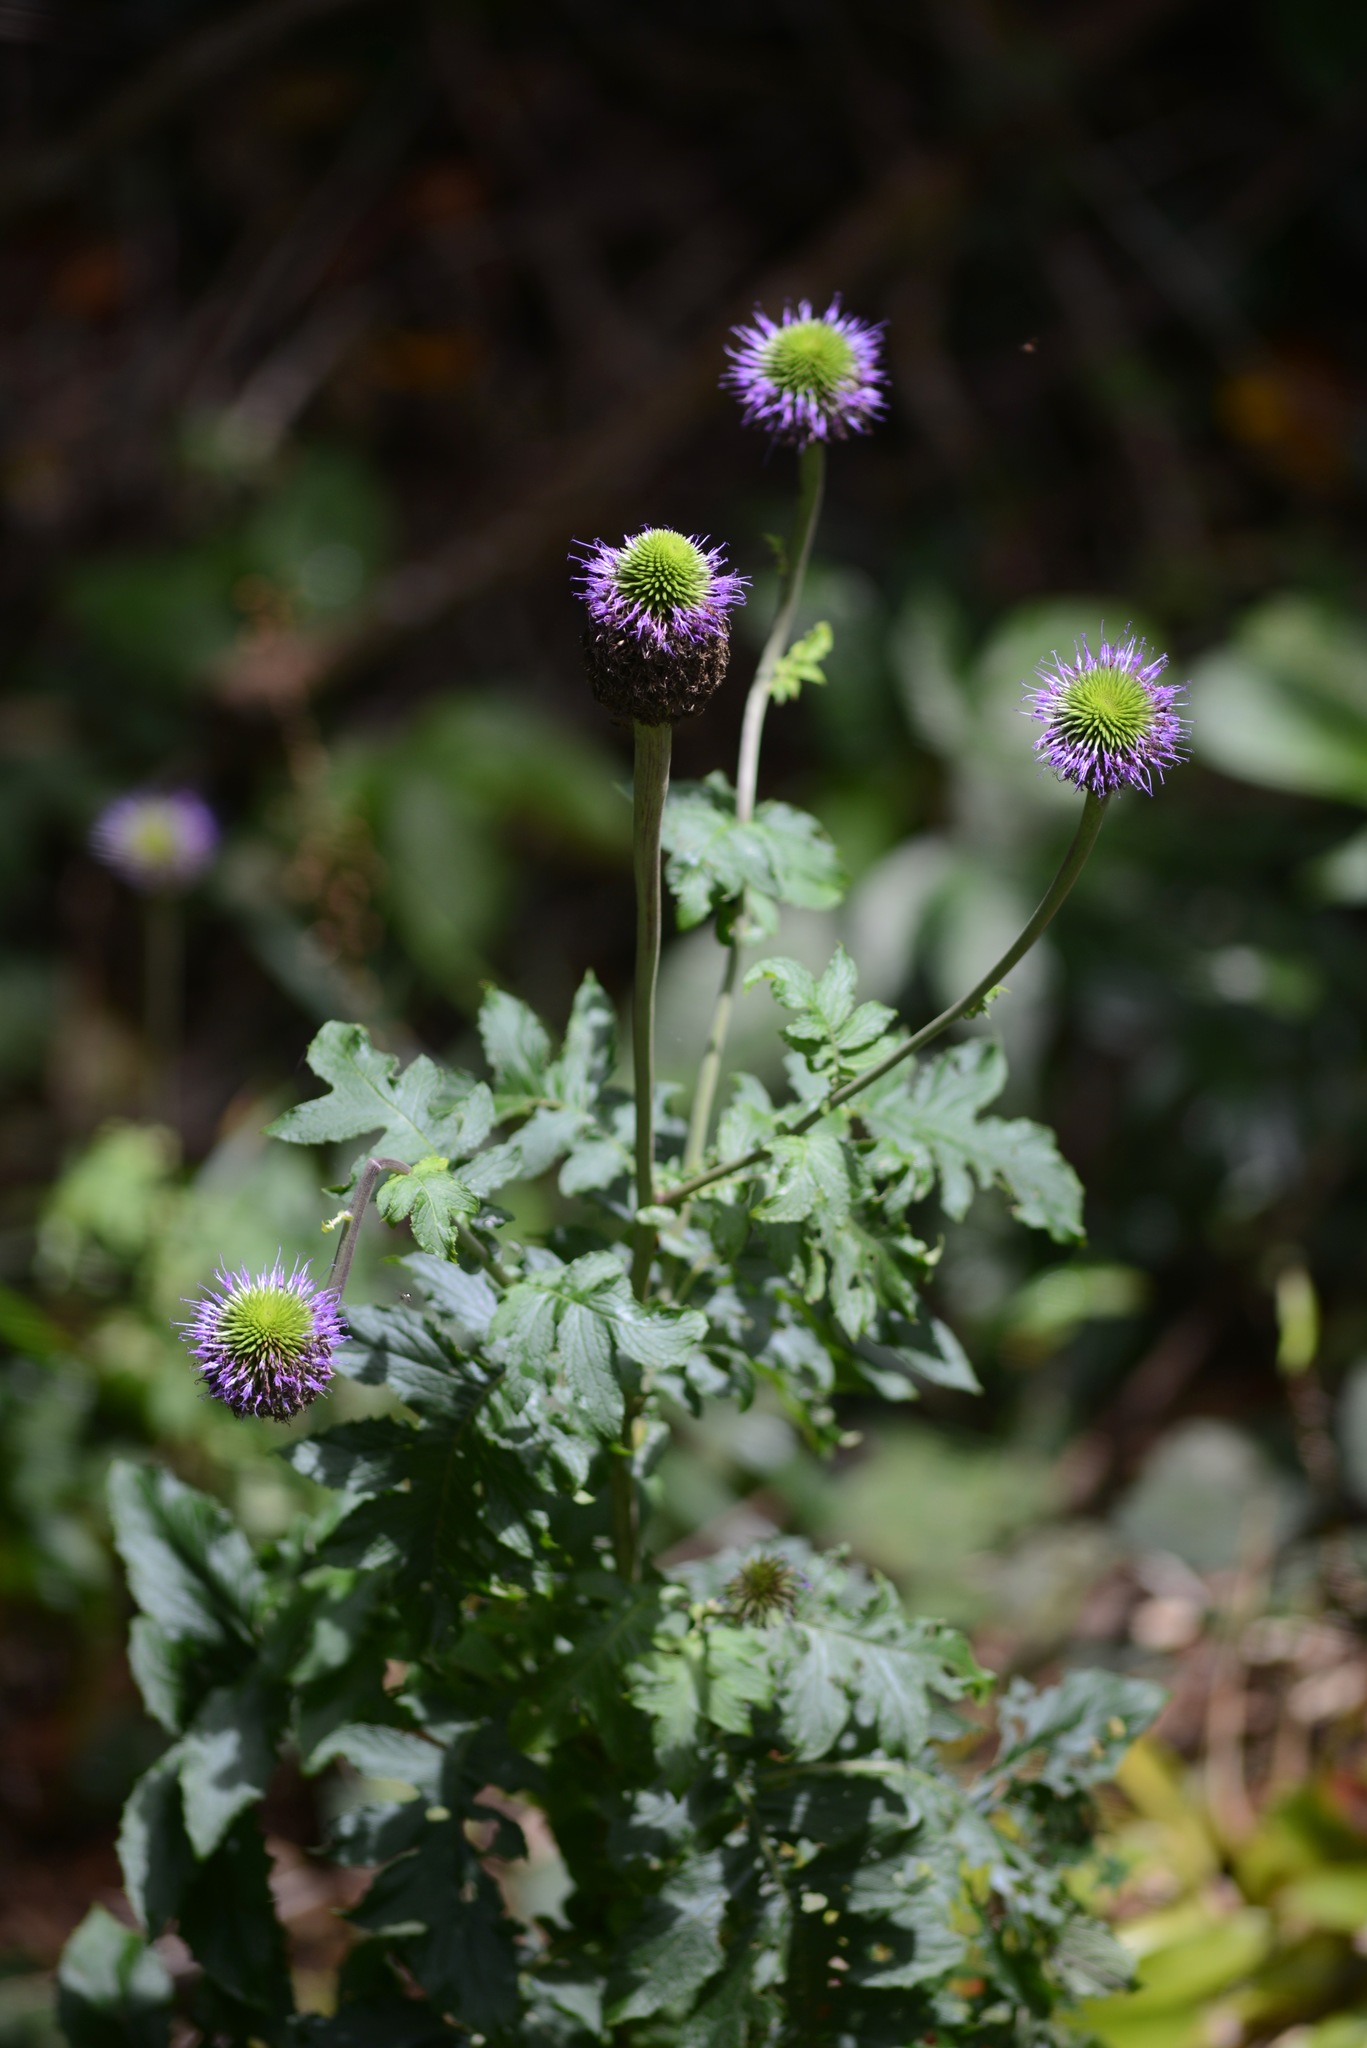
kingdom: Plantae
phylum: Tracheophyta
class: Magnoliopsida
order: Asterales
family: Asteraceae
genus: Chresta
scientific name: Chresta pacourinoides
